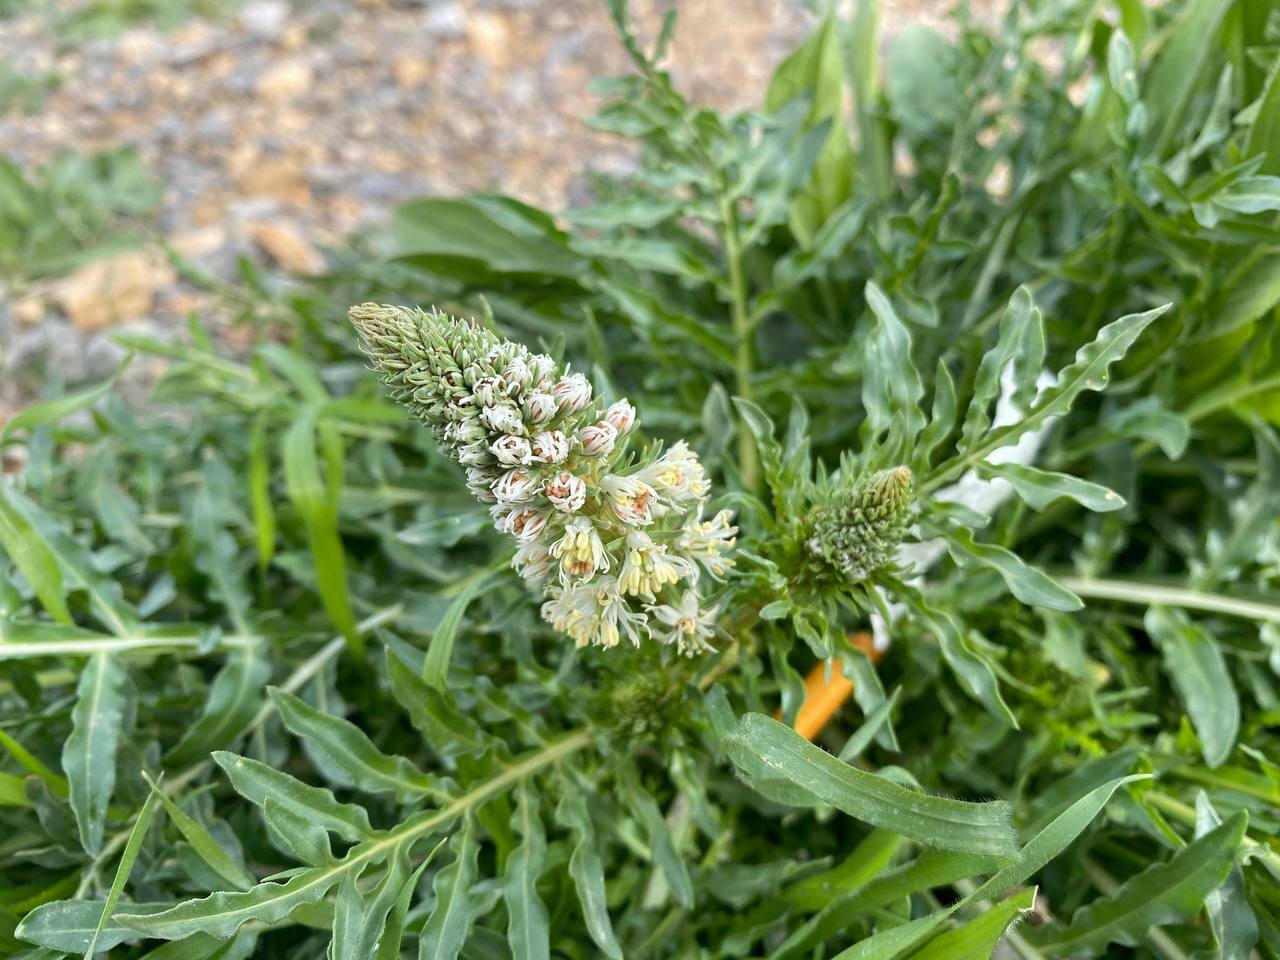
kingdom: Plantae
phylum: Tracheophyta
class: Magnoliopsida
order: Brassicales
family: Resedaceae
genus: Reseda
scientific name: Reseda alba
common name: White mignonette
